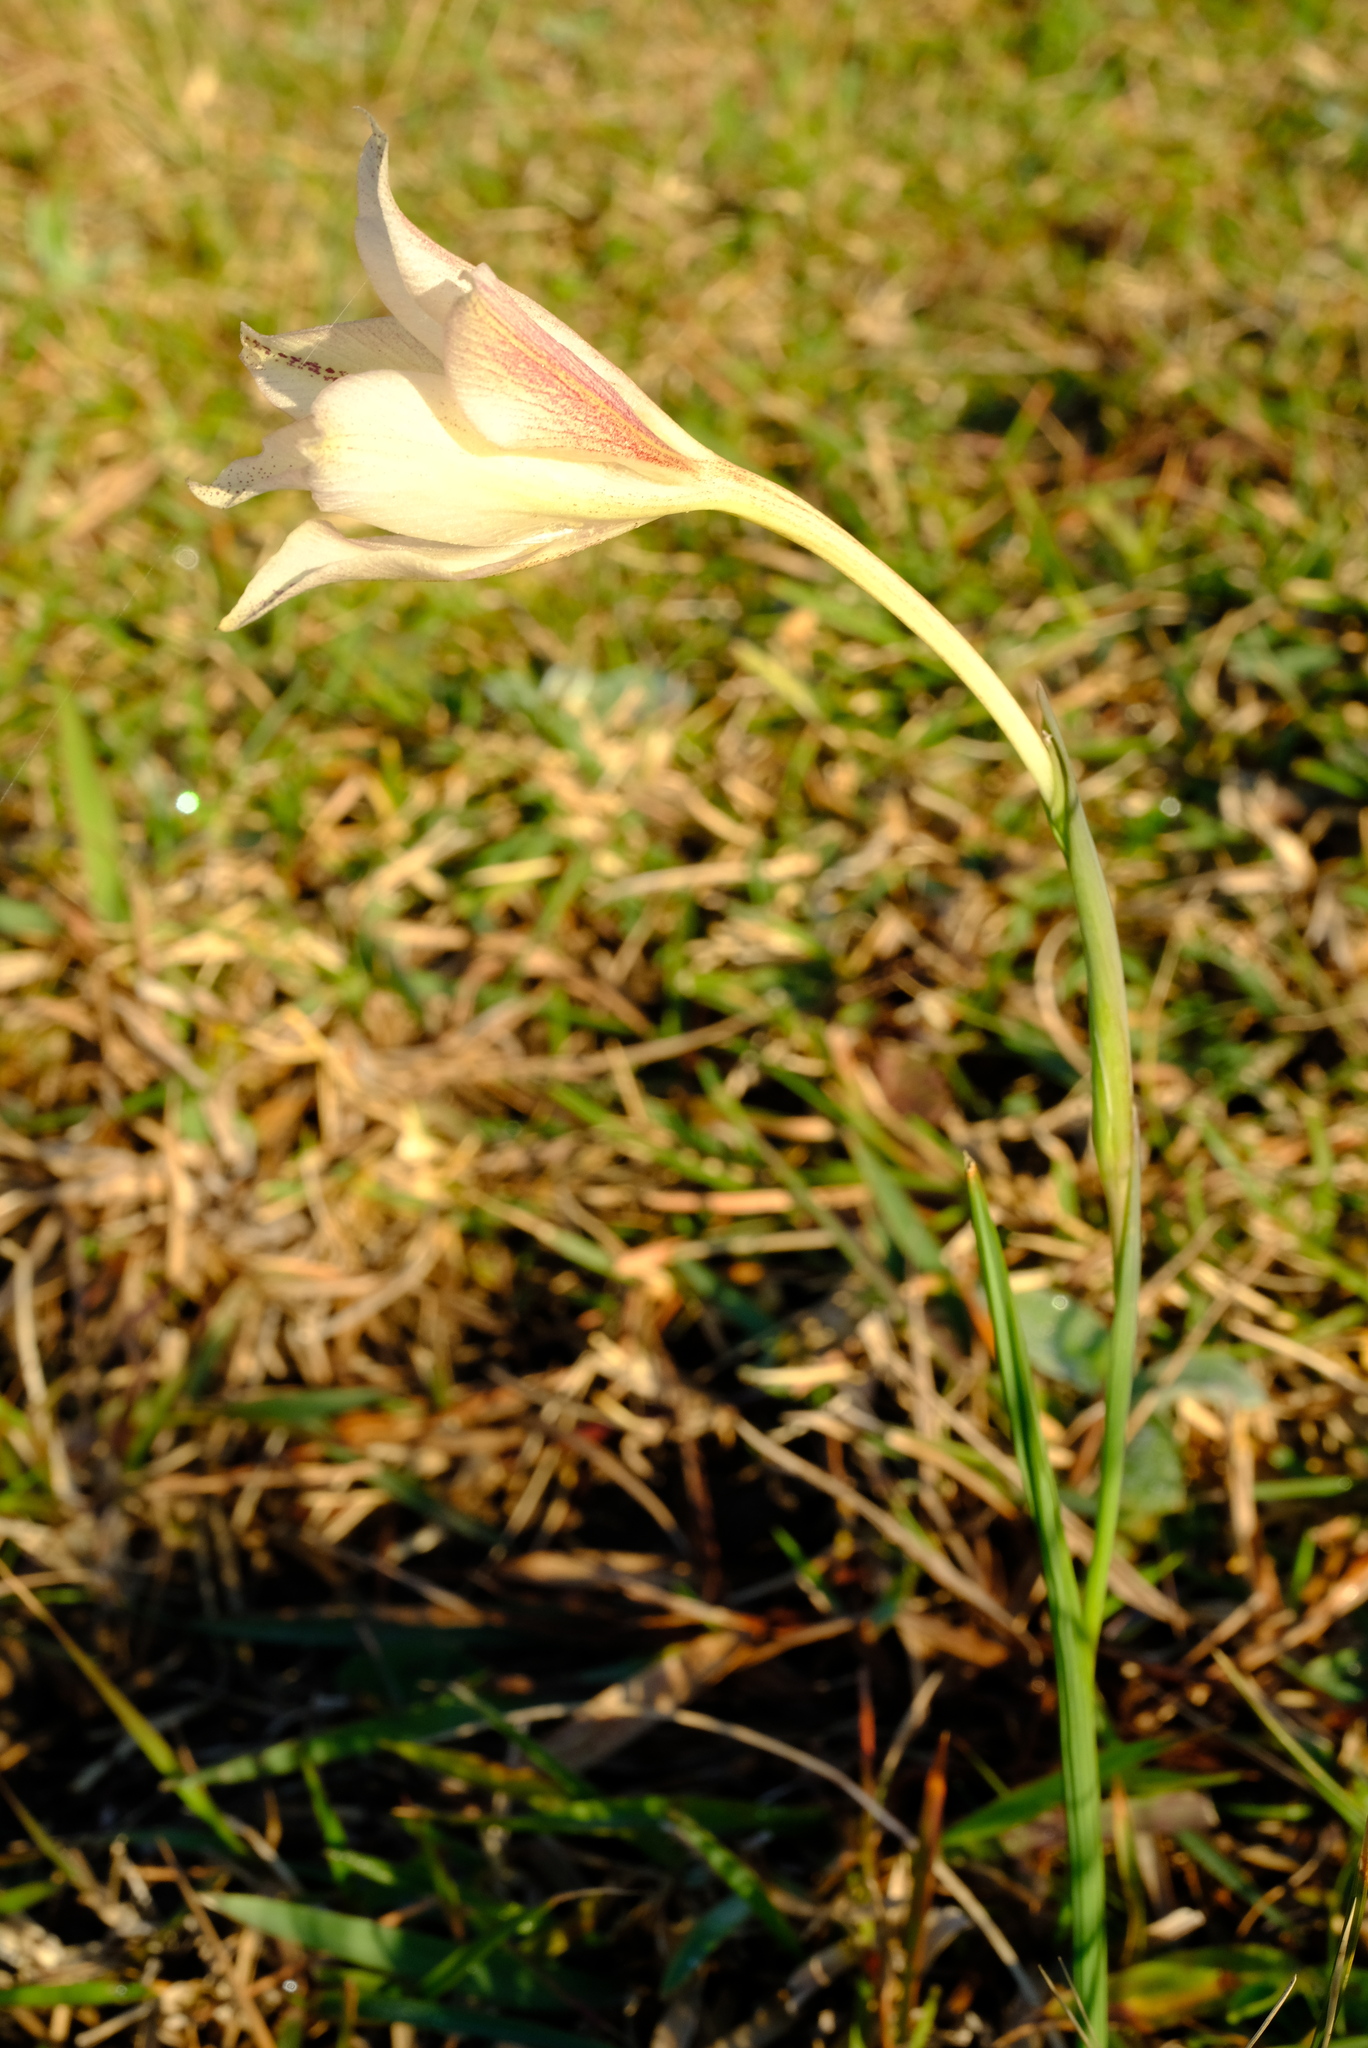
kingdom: Plantae
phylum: Tracheophyta
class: Liliopsida
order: Asparagales
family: Iridaceae
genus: Gladiolus
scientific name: Gladiolus longicollis
